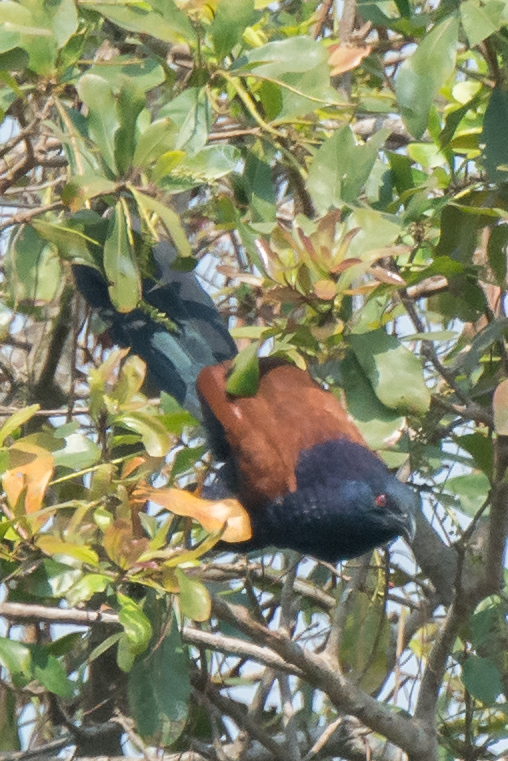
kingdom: Animalia
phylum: Chordata
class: Aves
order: Cuculiformes
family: Cuculidae
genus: Centropus
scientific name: Centropus sinensis
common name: Greater coucal
